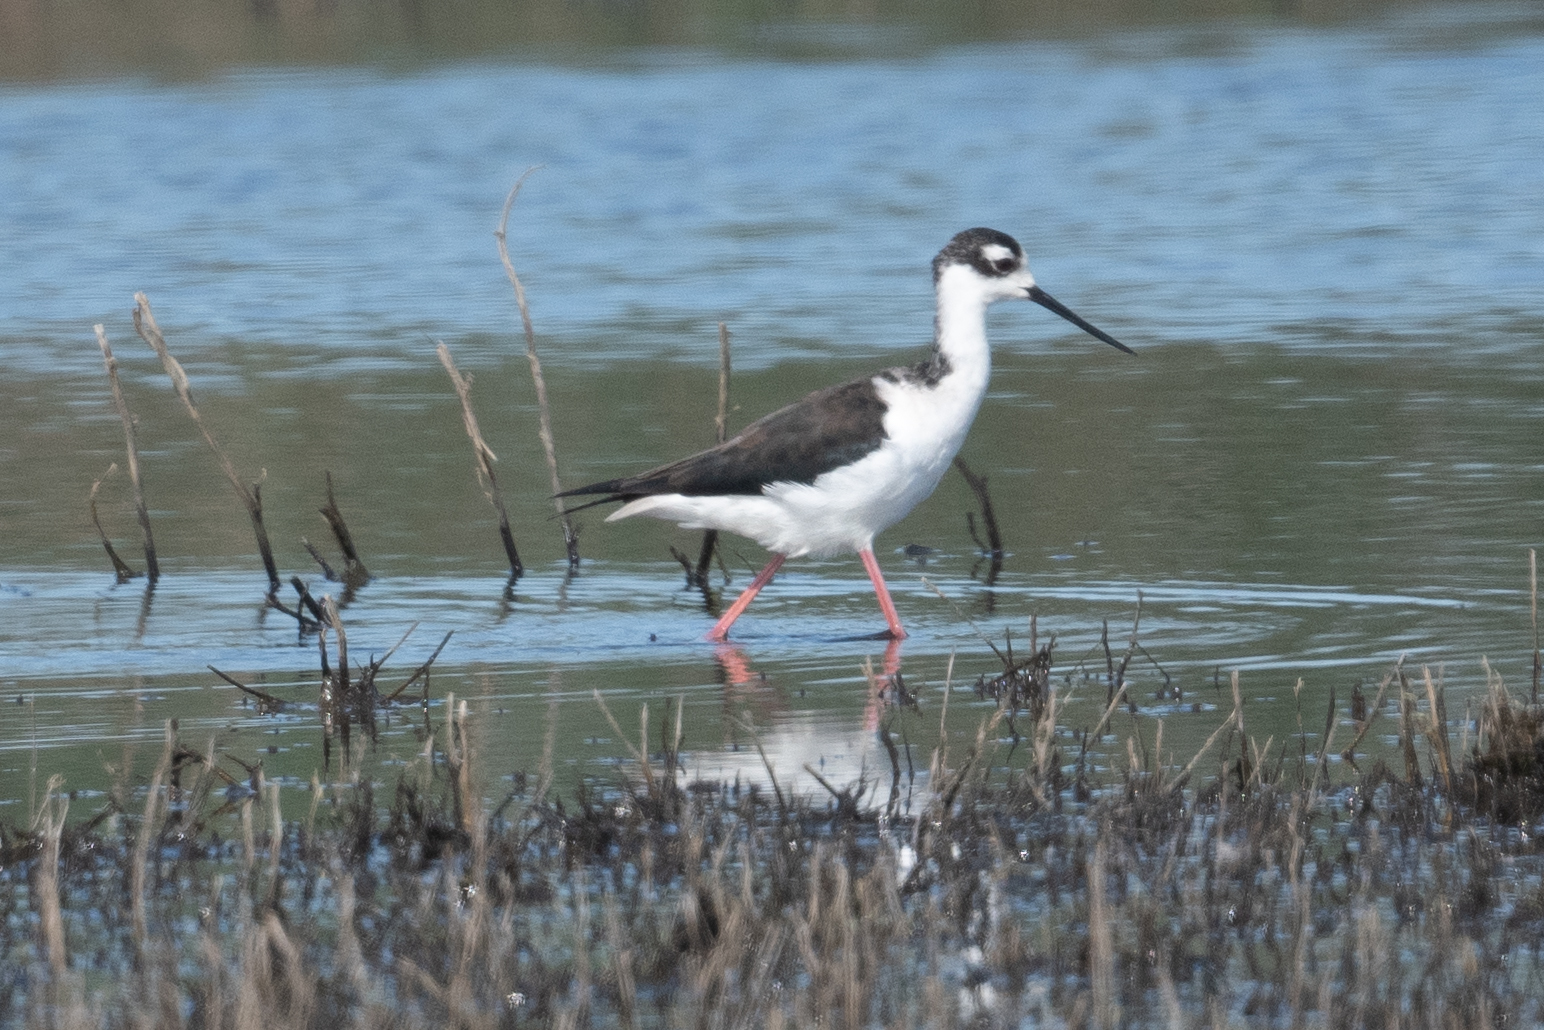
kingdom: Animalia
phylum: Chordata
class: Aves
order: Charadriiformes
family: Recurvirostridae
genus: Himantopus
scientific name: Himantopus mexicanus
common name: Black-necked stilt
